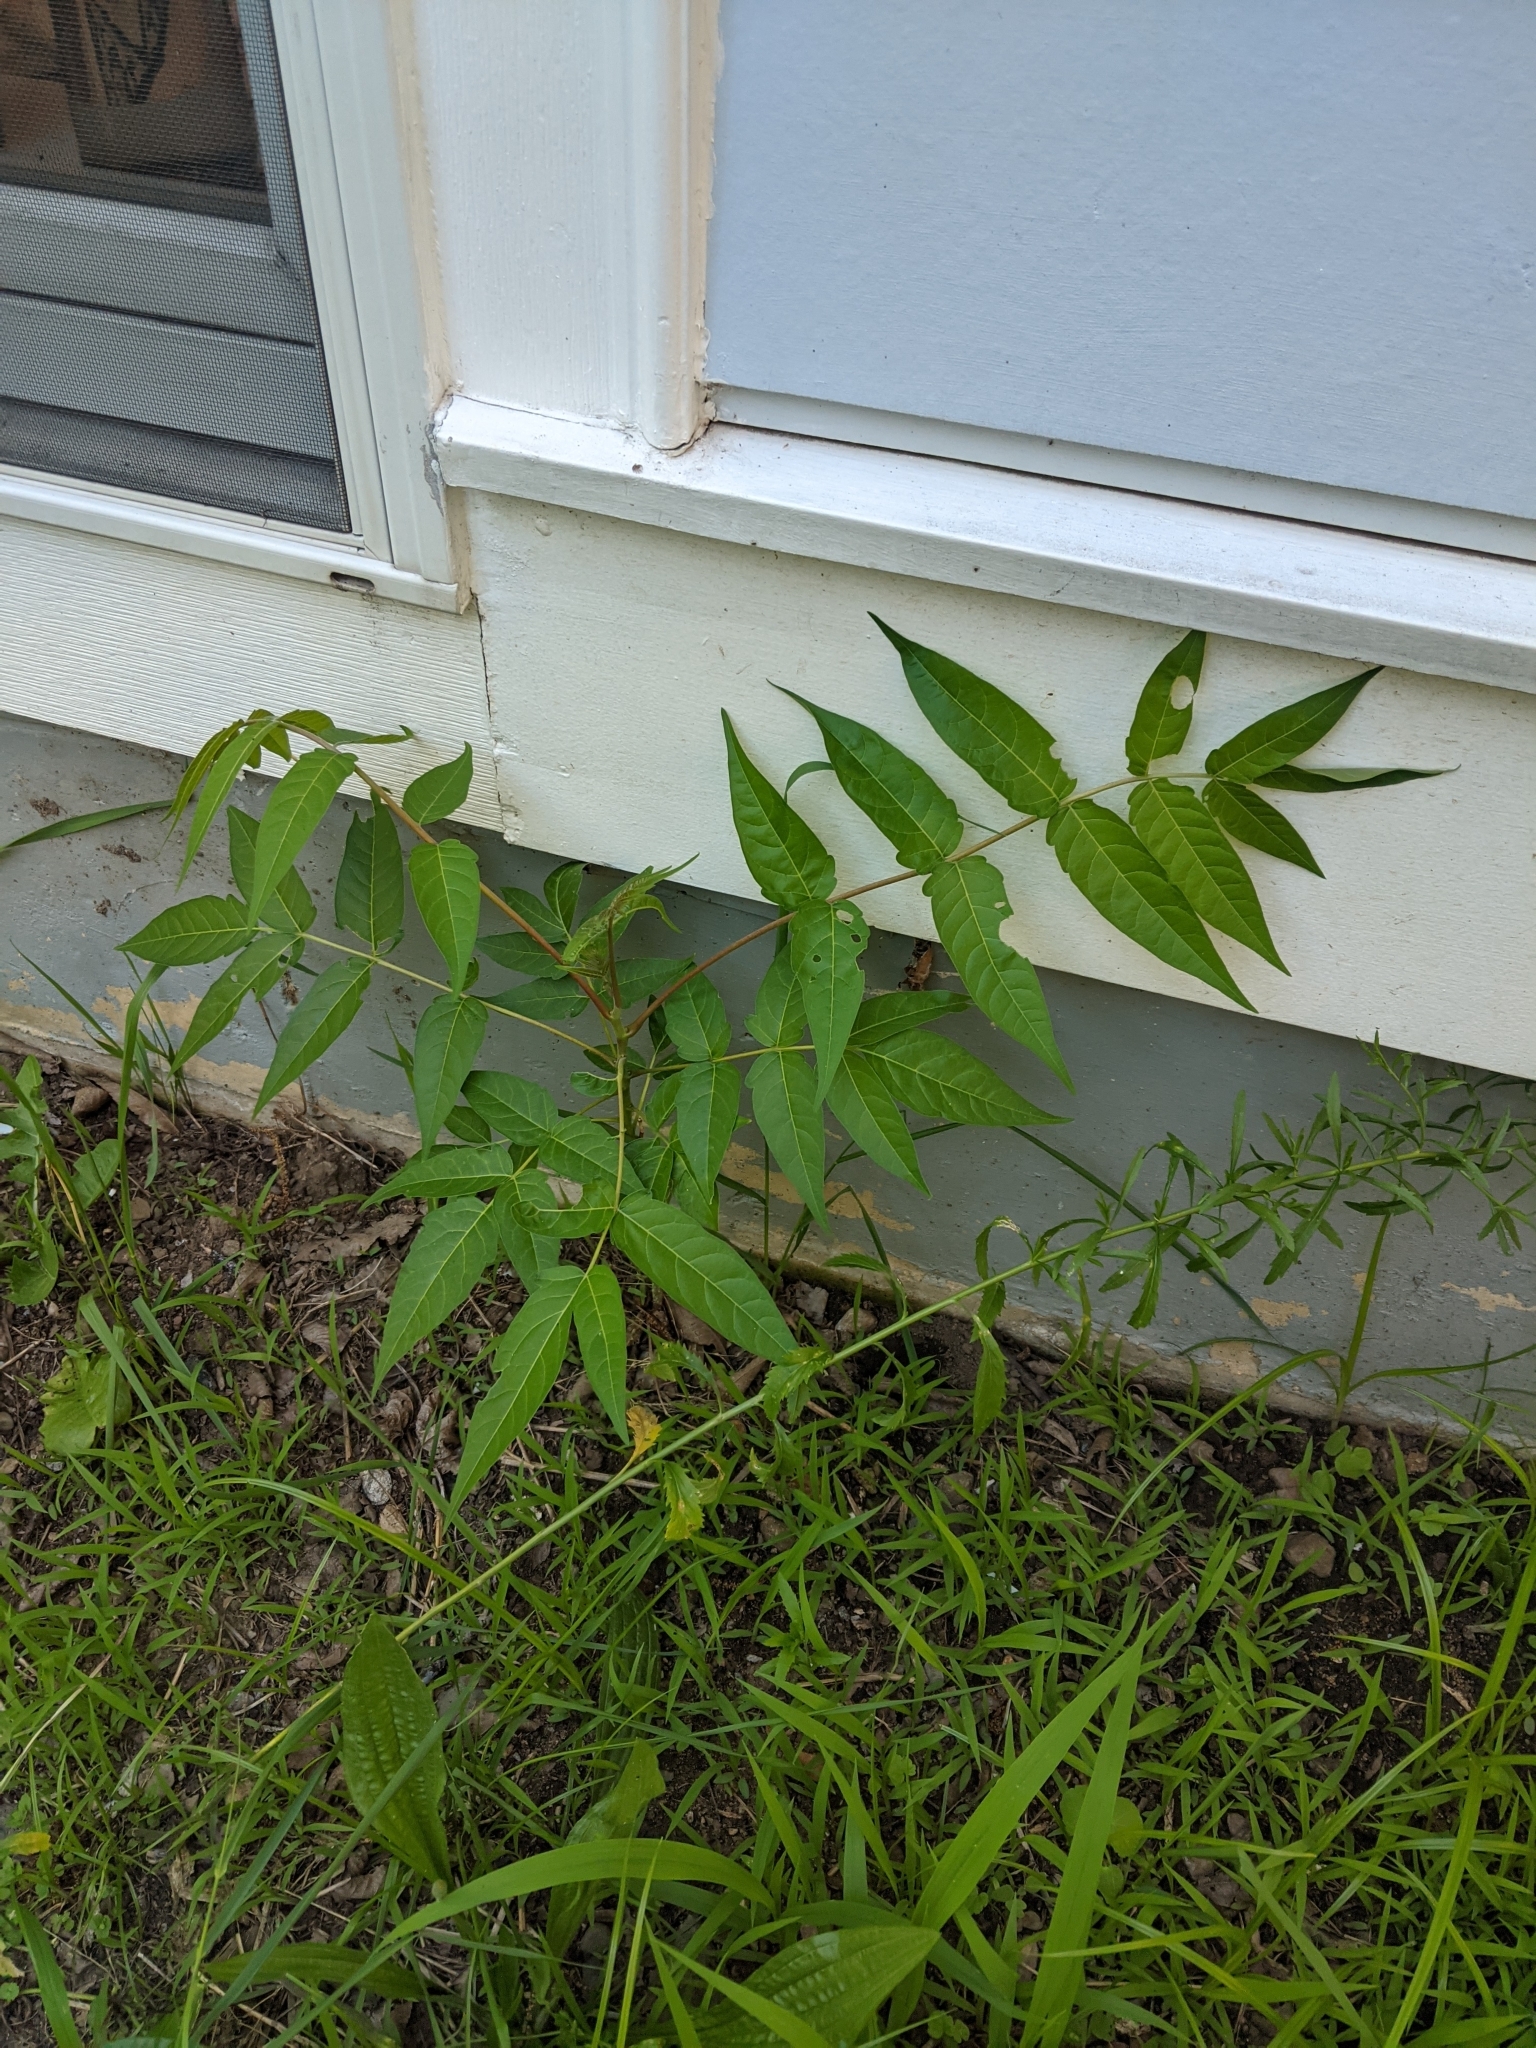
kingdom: Plantae
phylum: Tracheophyta
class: Magnoliopsida
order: Sapindales
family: Simaroubaceae
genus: Ailanthus
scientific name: Ailanthus altissima
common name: Tree-of-heaven
